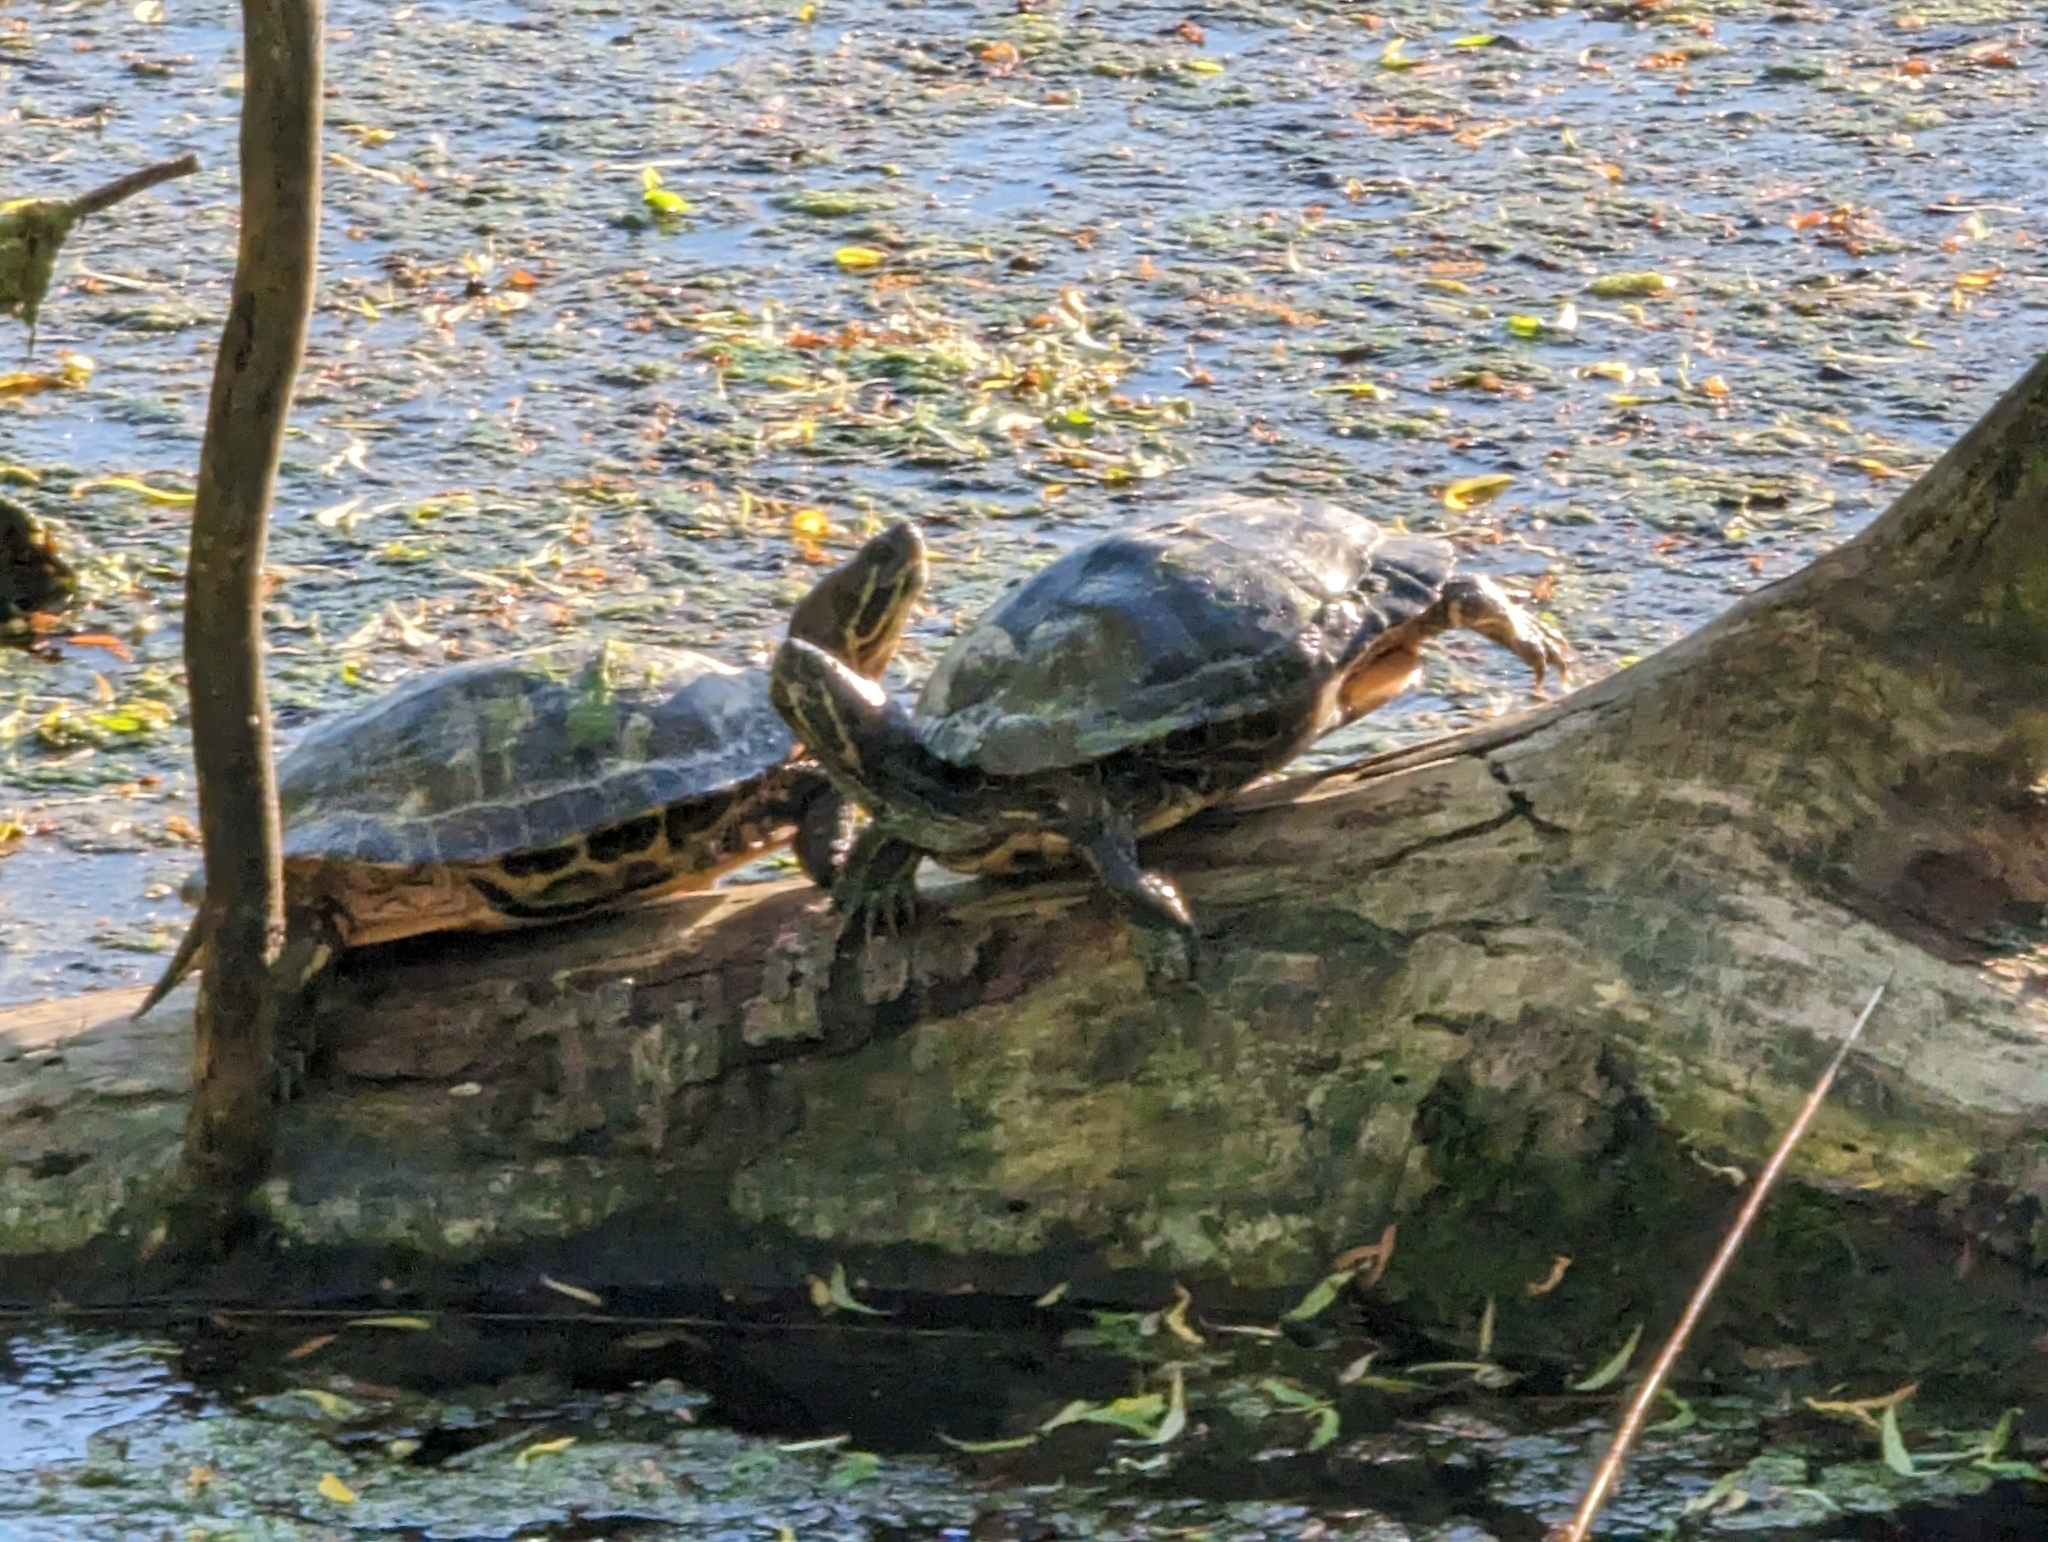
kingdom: Animalia
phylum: Chordata
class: Testudines
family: Emydidae
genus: Trachemys
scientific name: Trachemys scripta
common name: Slider
